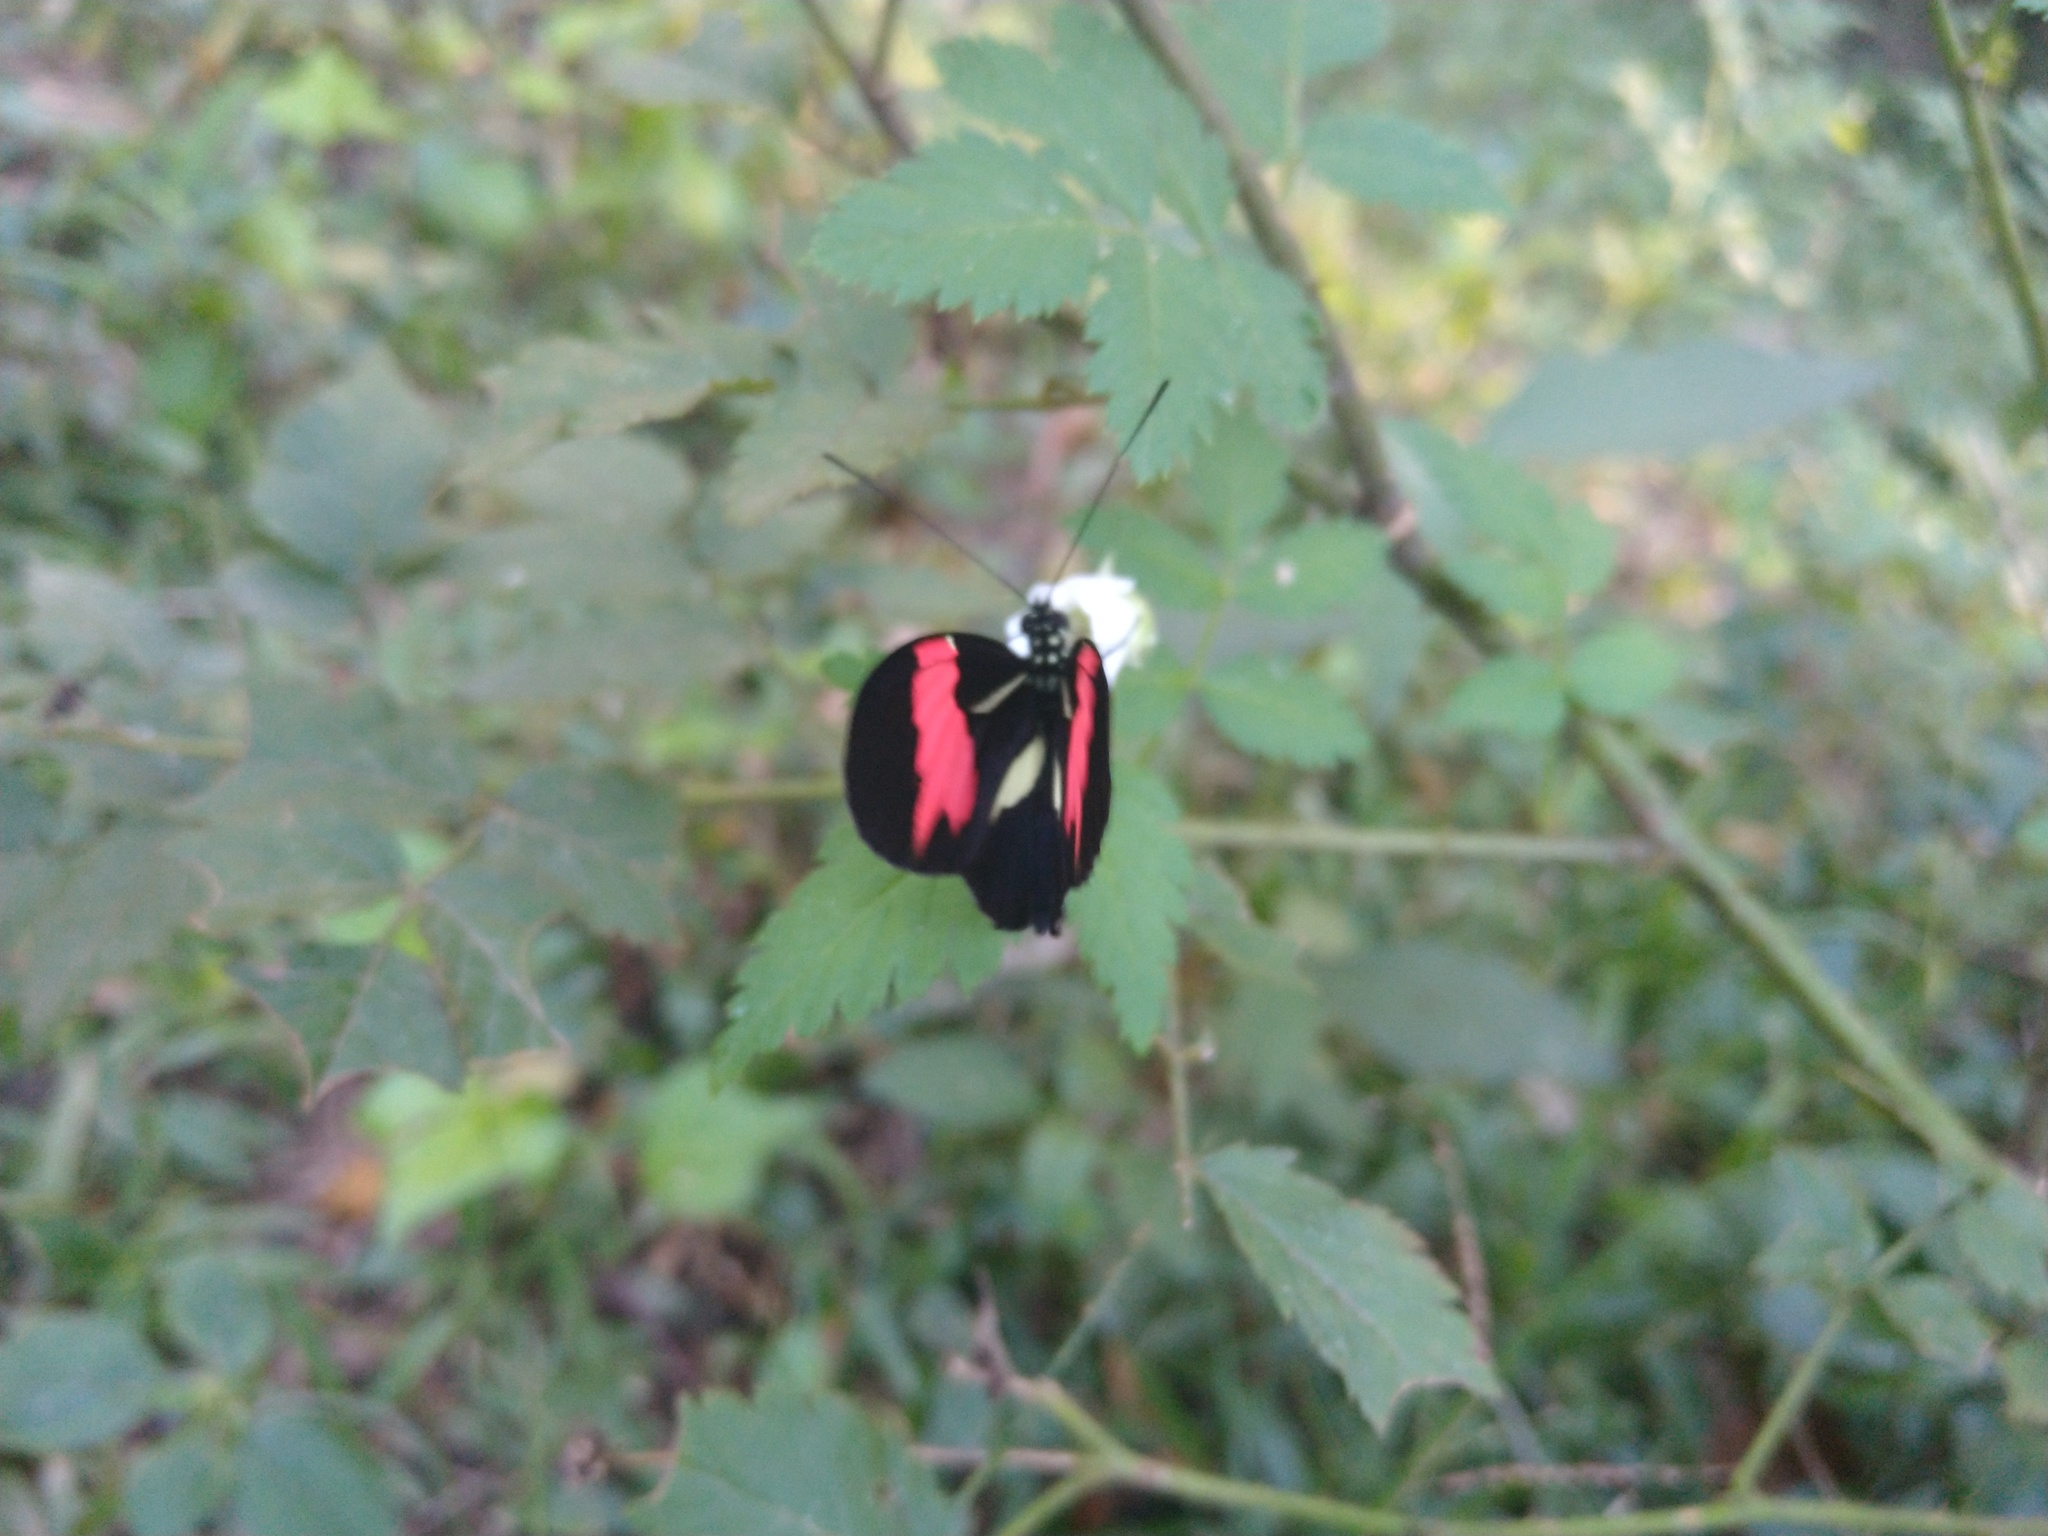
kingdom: Animalia
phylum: Arthropoda
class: Insecta
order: Lepidoptera
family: Nymphalidae
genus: Heliconius
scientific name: Heliconius erato
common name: Common patch longwing
